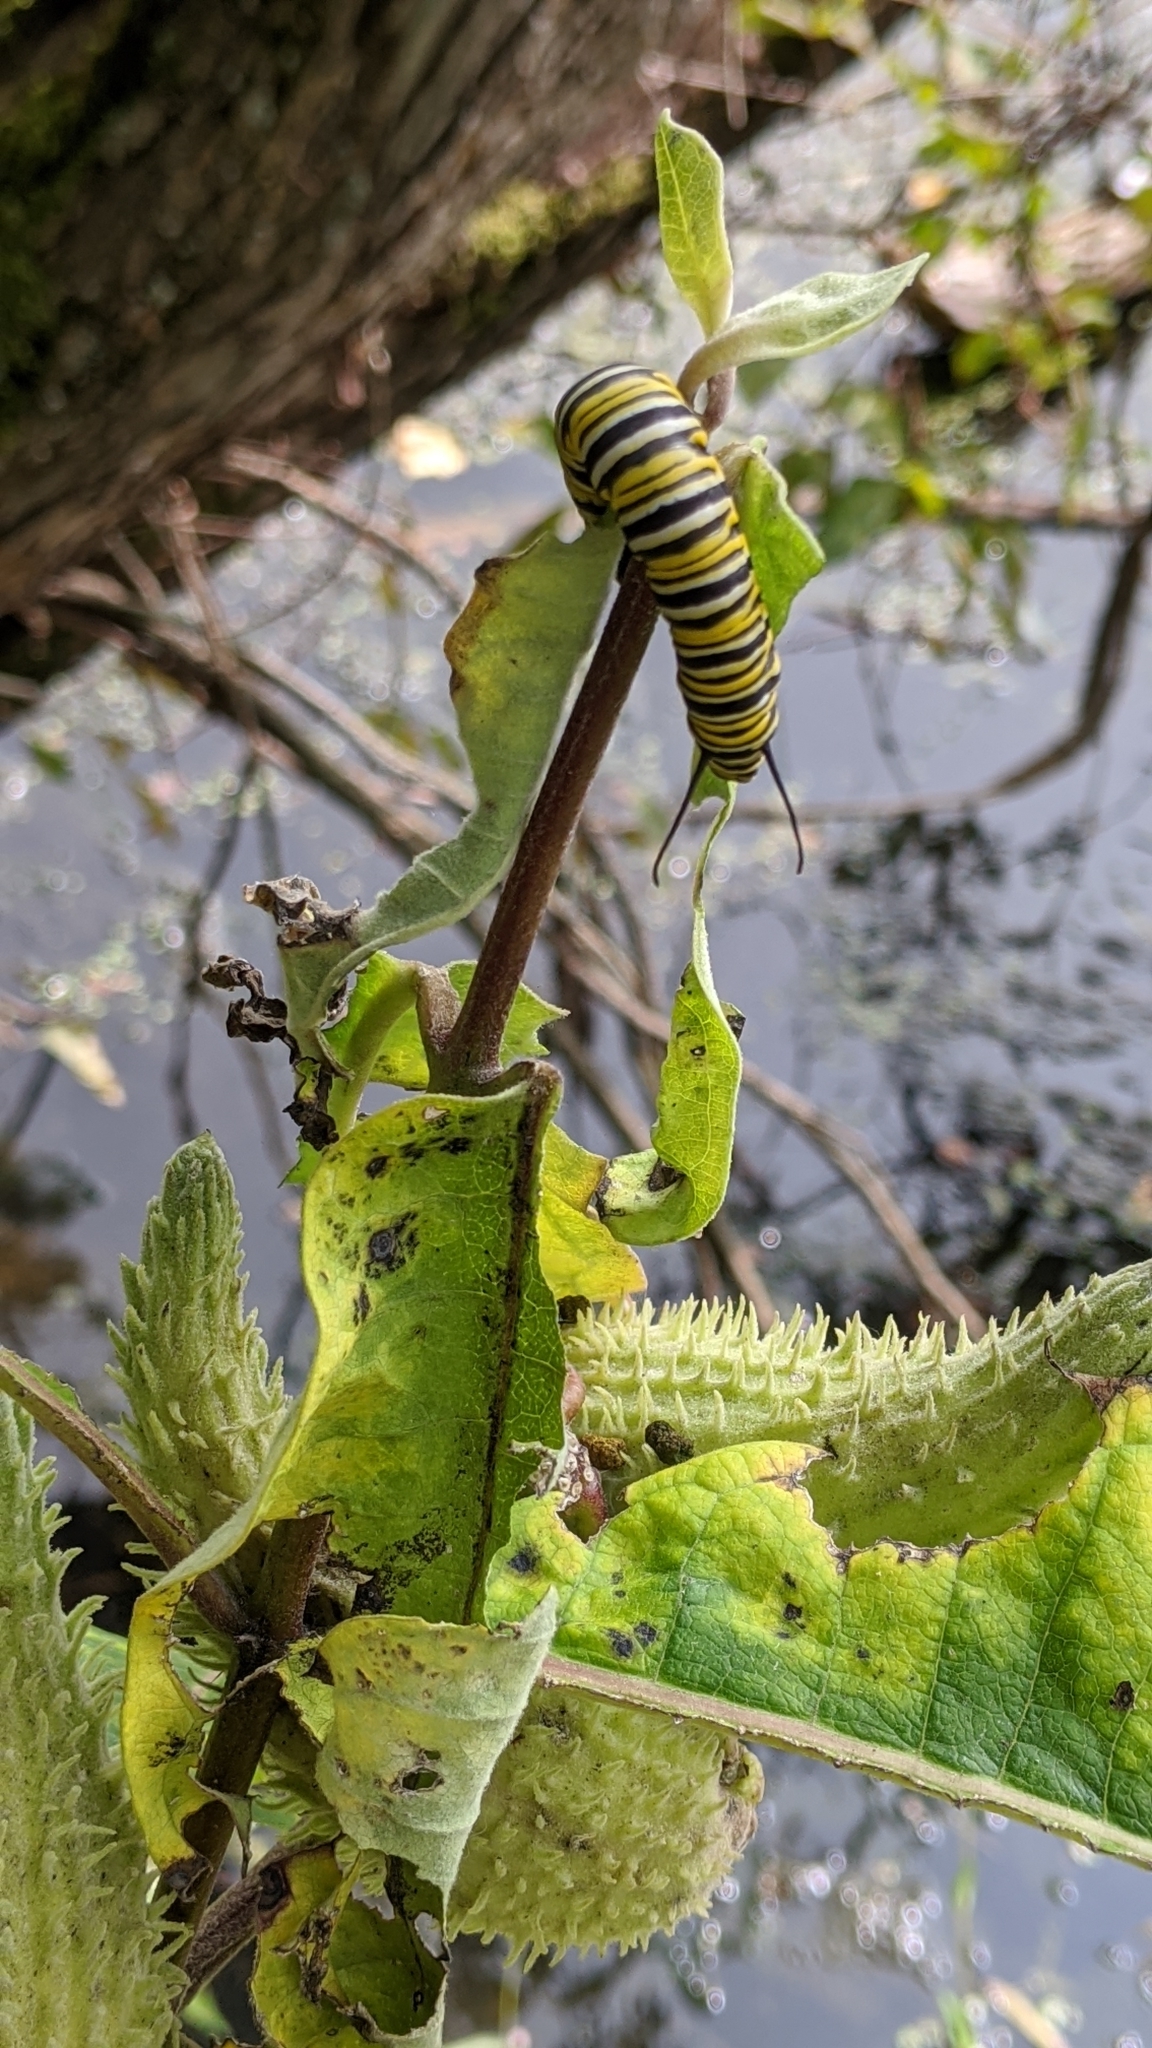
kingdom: Animalia
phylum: Arthropoda
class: Insecta
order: Lepidoptera
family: Nymphalidae
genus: Danaus
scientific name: Danaus plexippus
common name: Monarch
